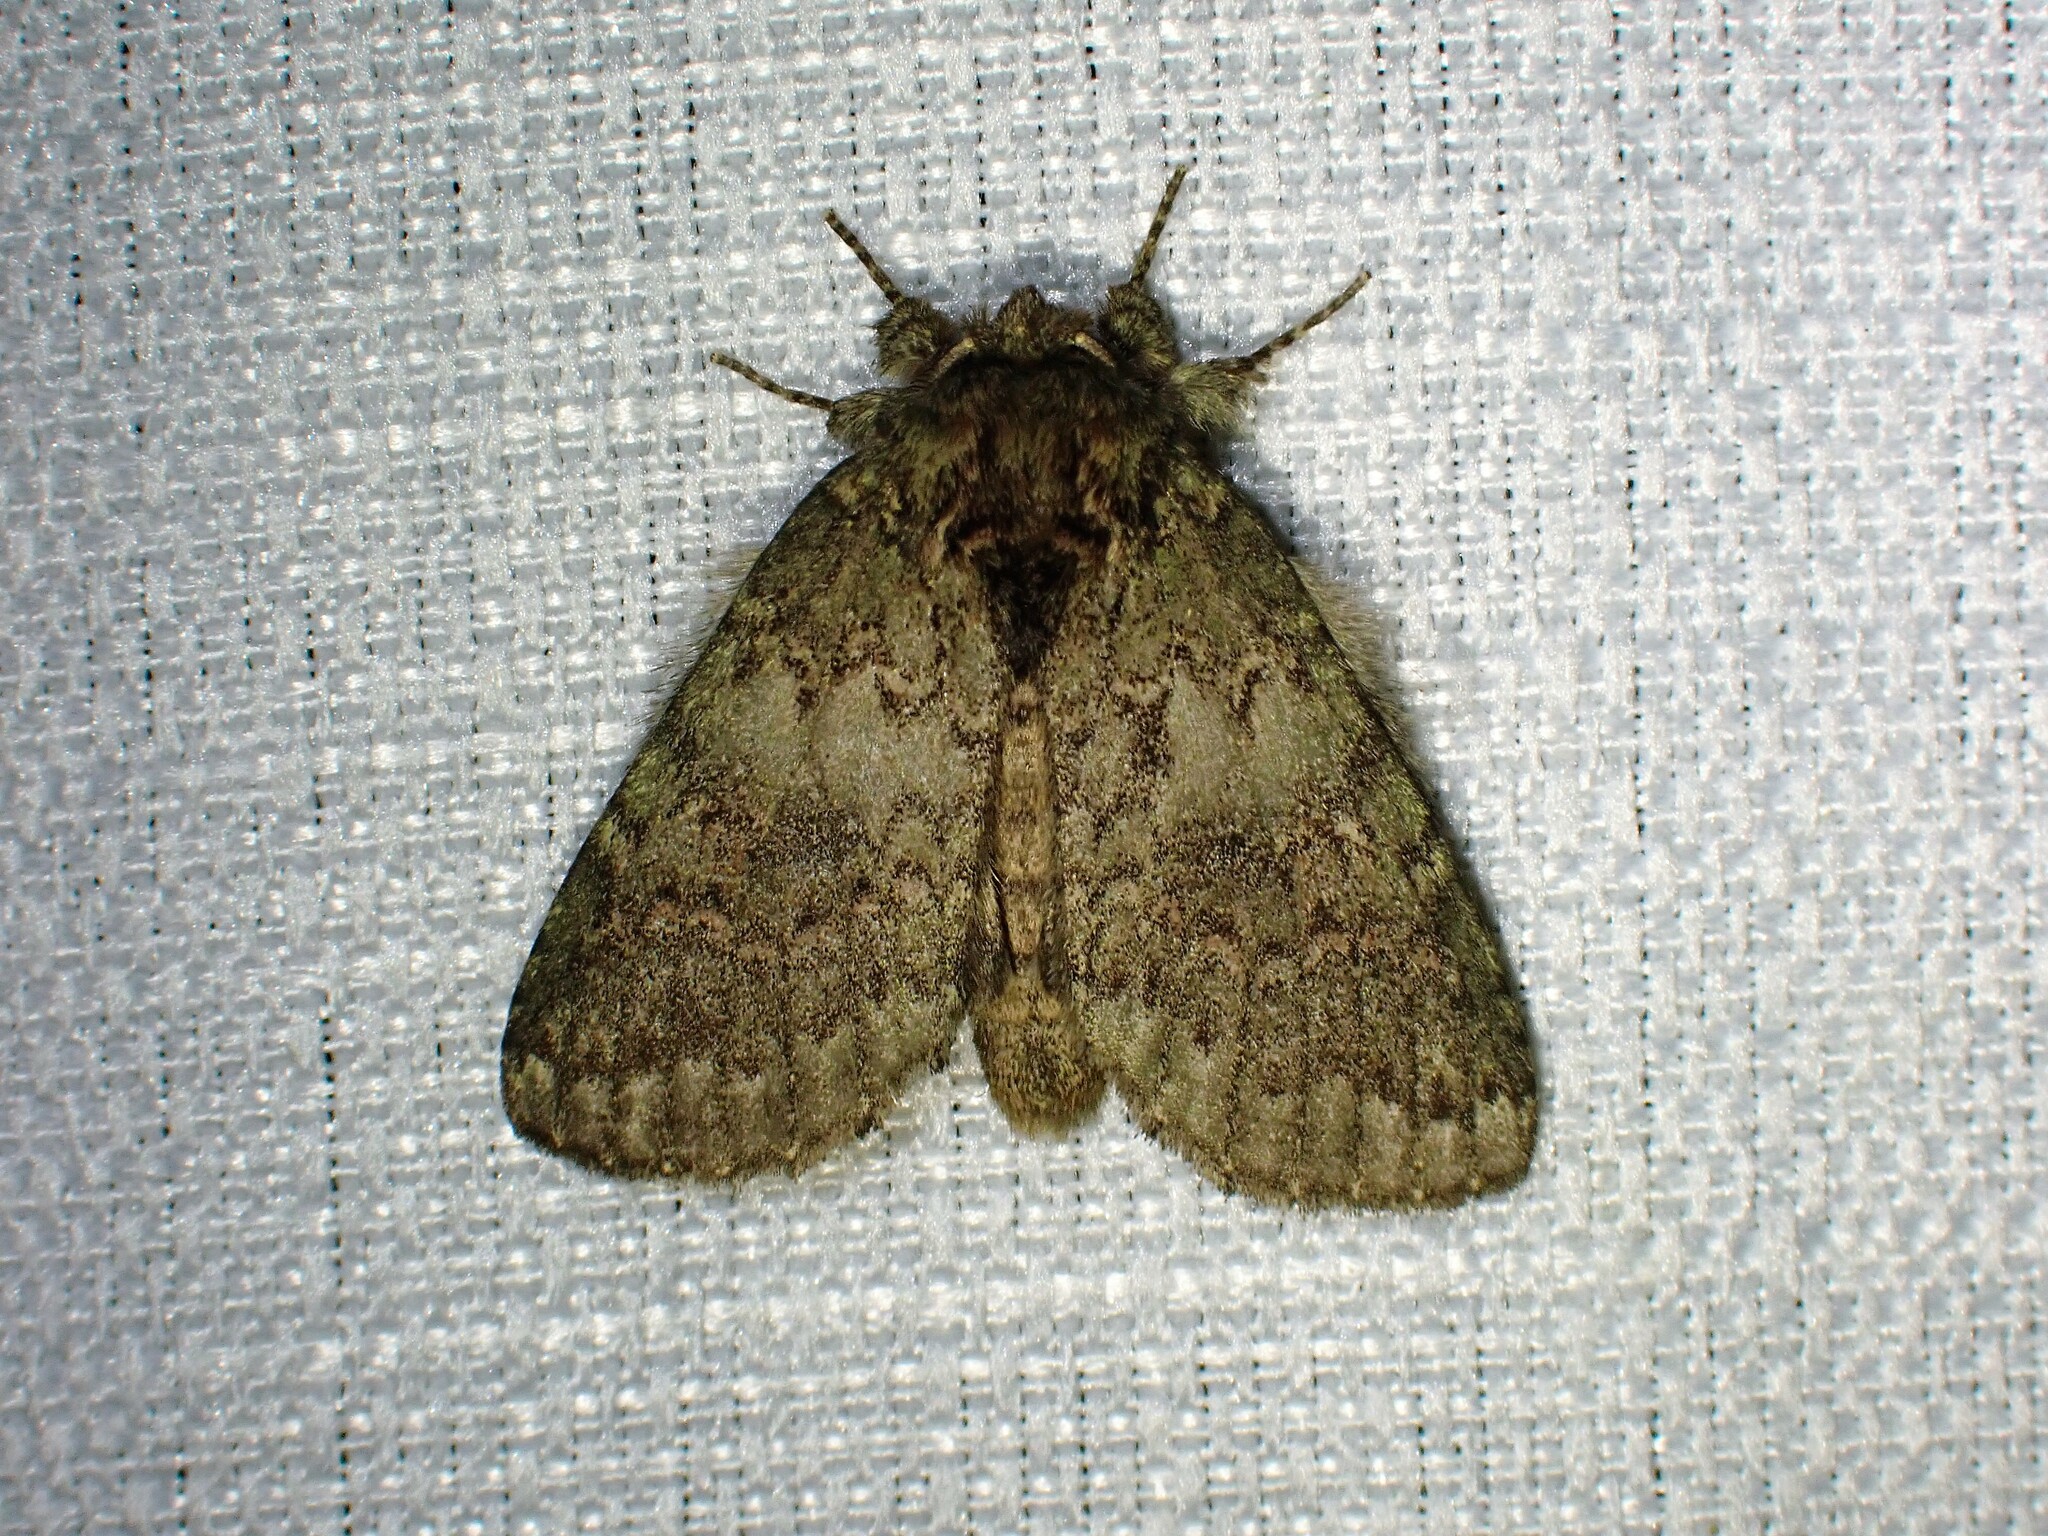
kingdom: Animalia
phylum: Arthropoda
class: Insecta
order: Lepidoptera
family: Notodontidae
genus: Disphragis
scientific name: Disphragis Cecrita biundata
